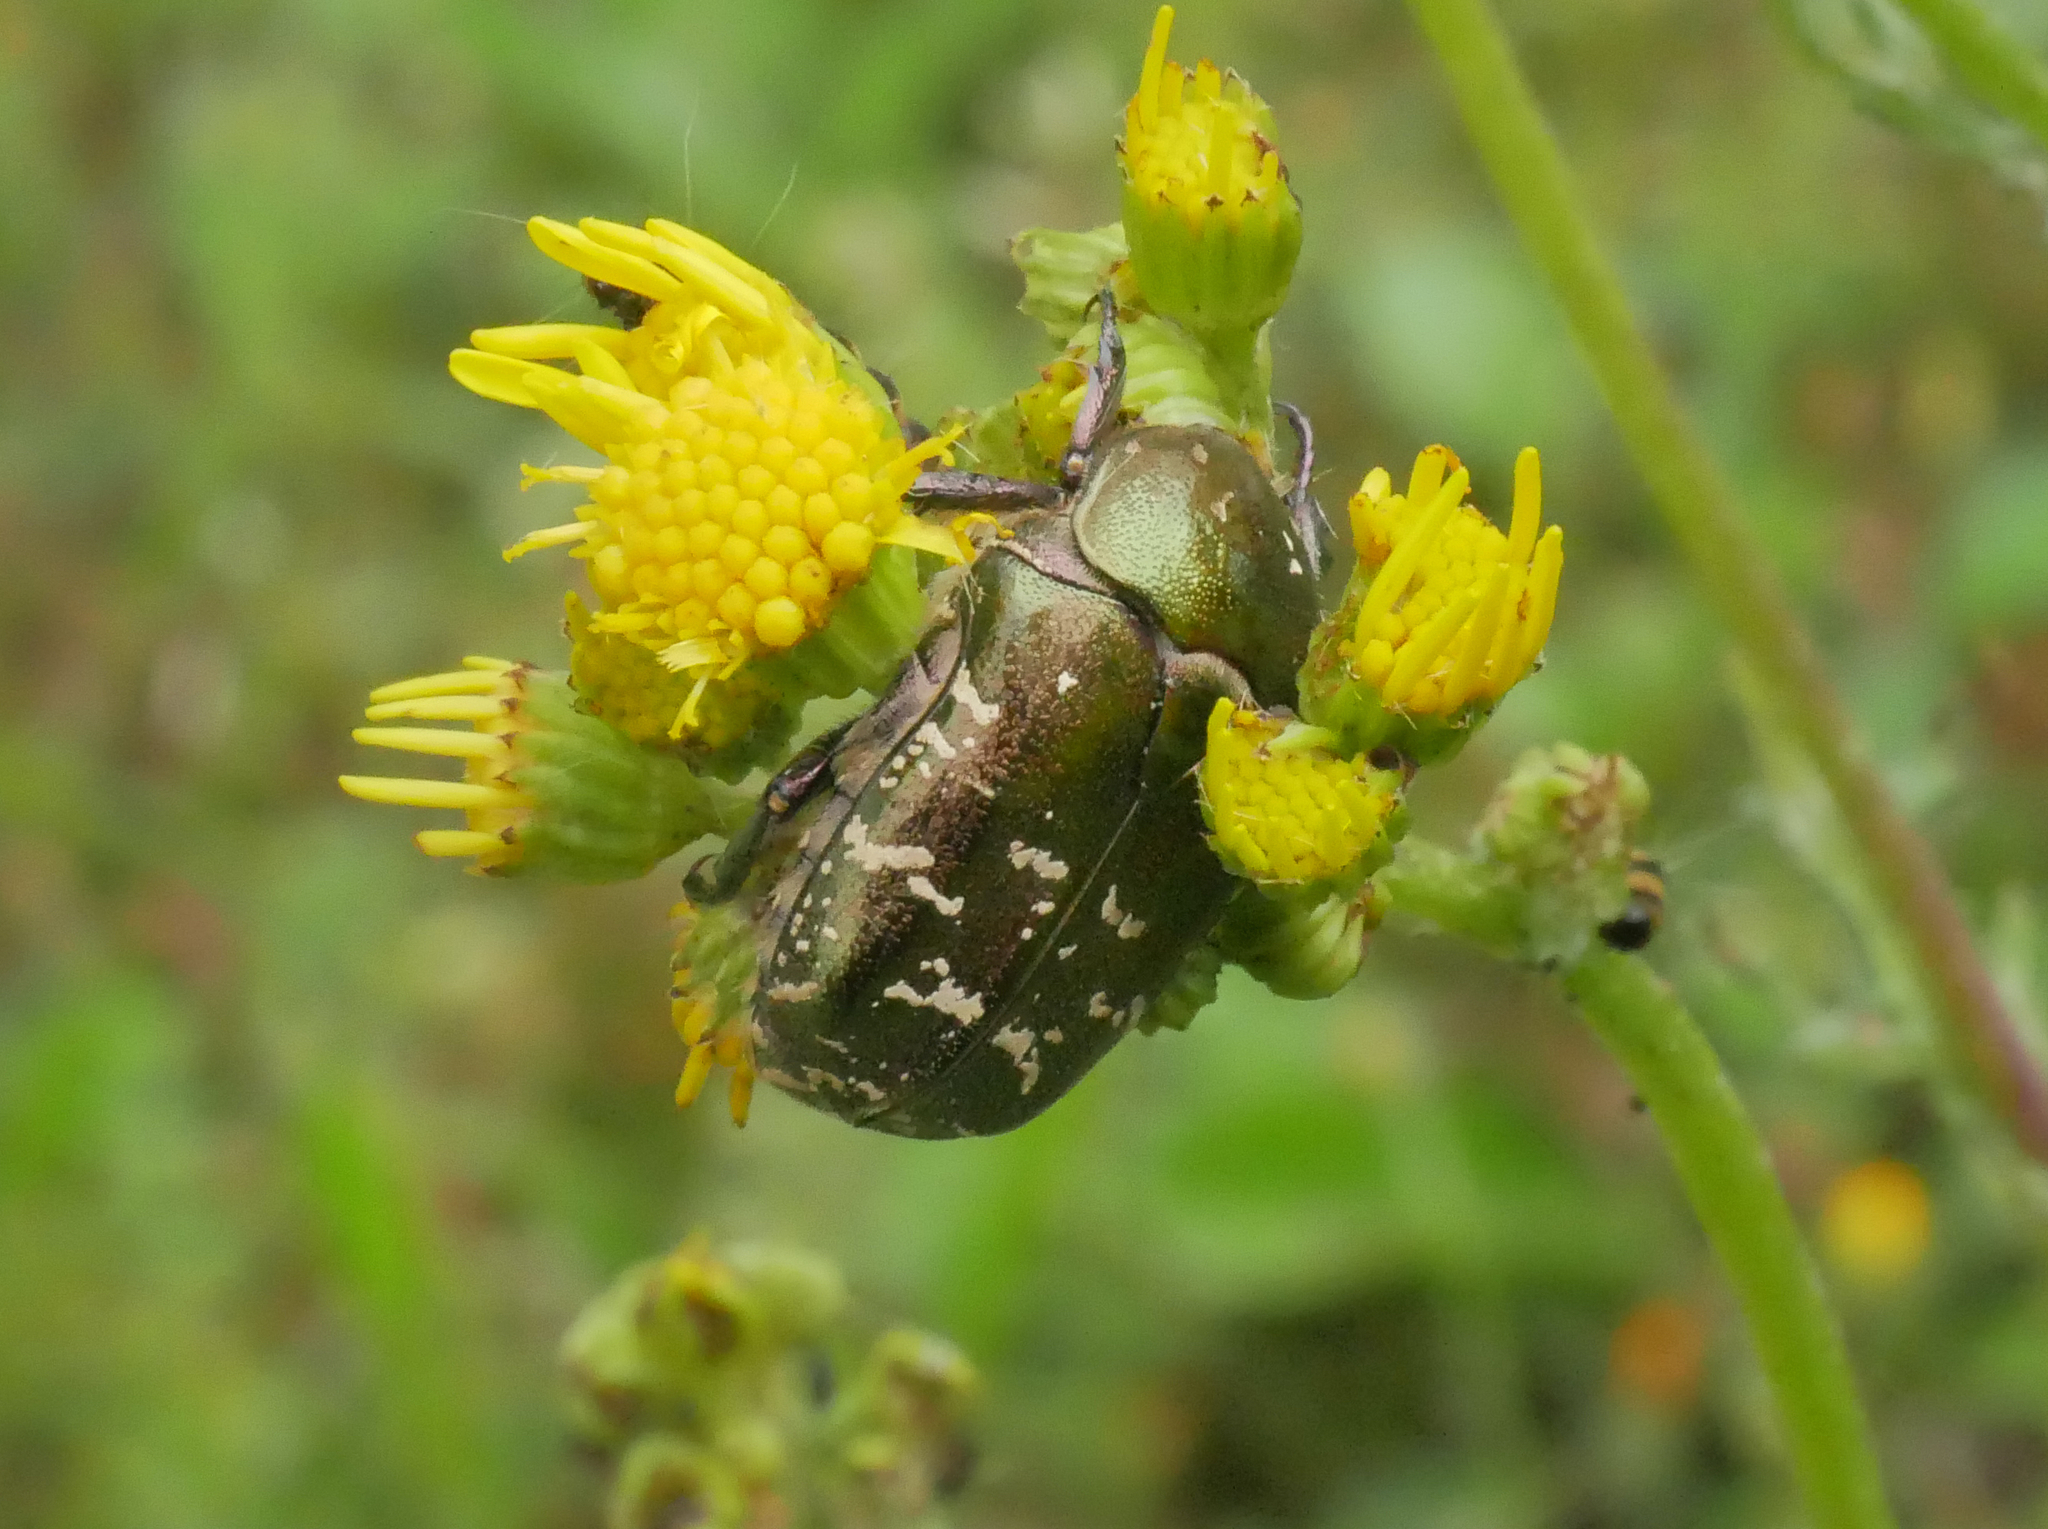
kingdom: Animalia
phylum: Arthropoda
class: Insecta
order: Coleoptera
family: Scarabaeidae
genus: Protaetia
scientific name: Protaetia cuprea
